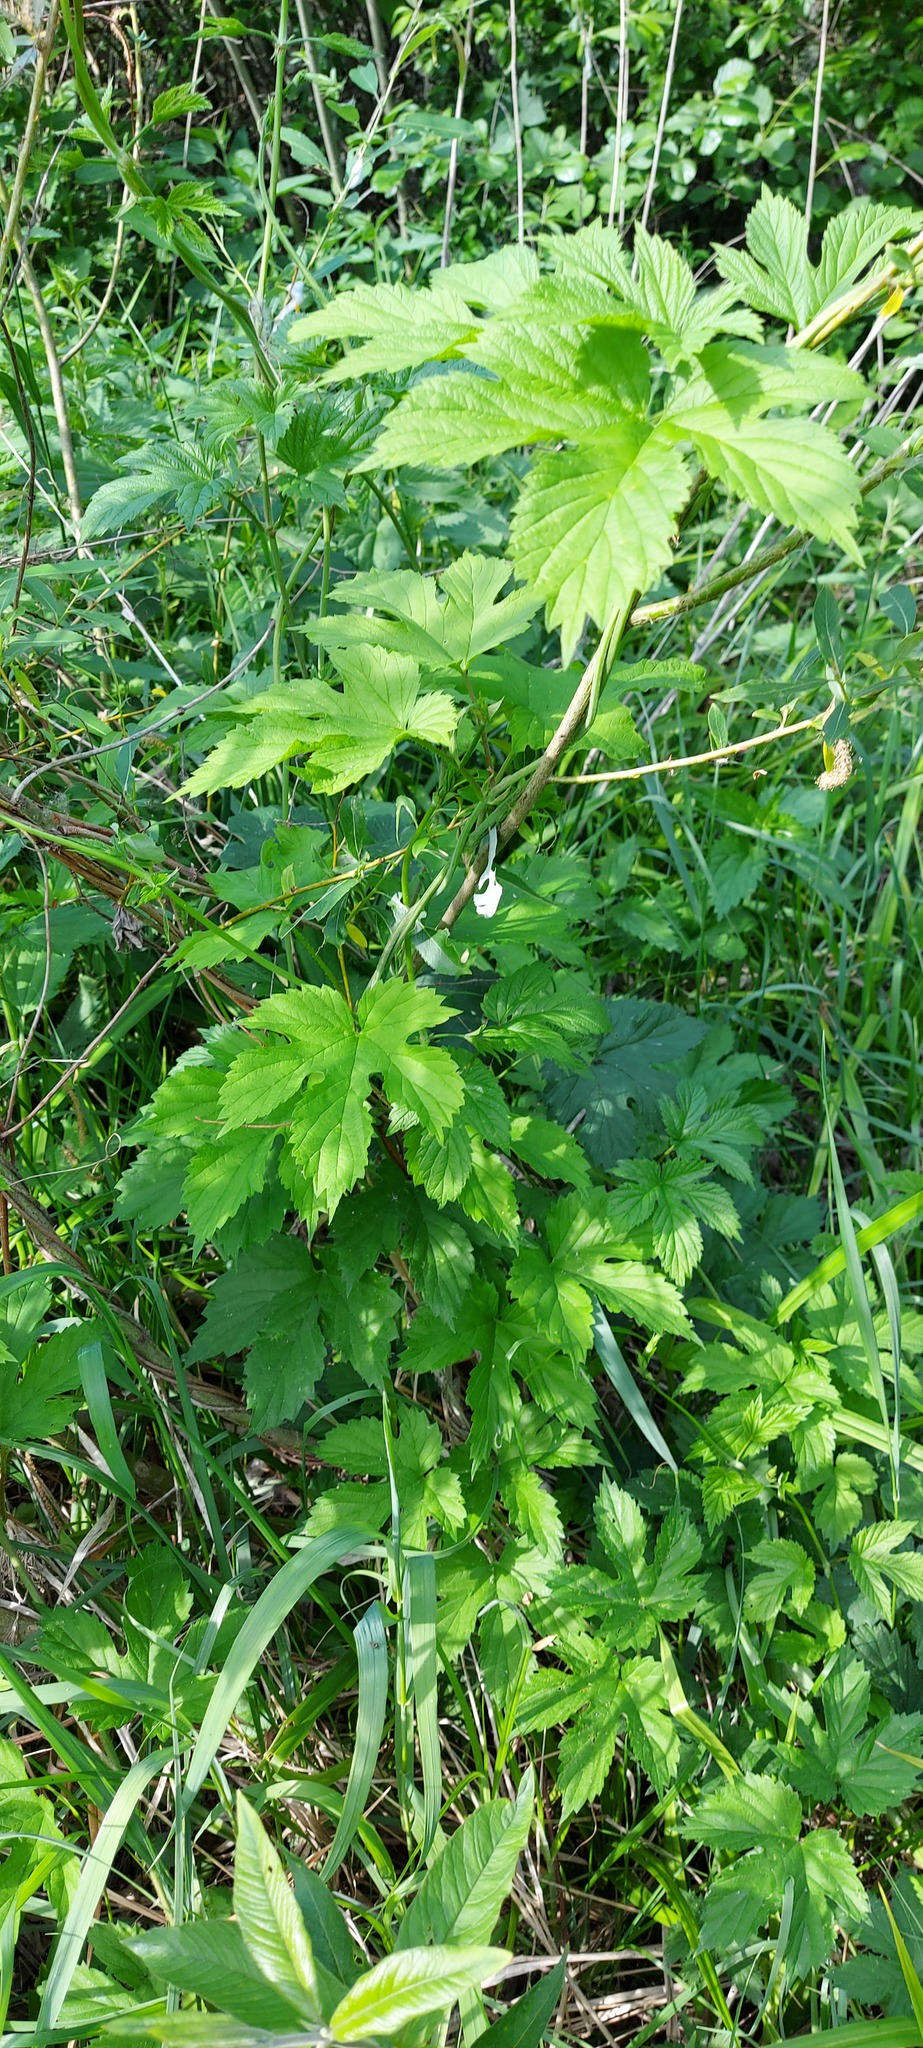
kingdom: Plantae
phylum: Tracheophyta
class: Magnoliopsida
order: Rosales
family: Cannabaceae
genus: Humulus
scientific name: Humulus lupulus
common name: Hop
